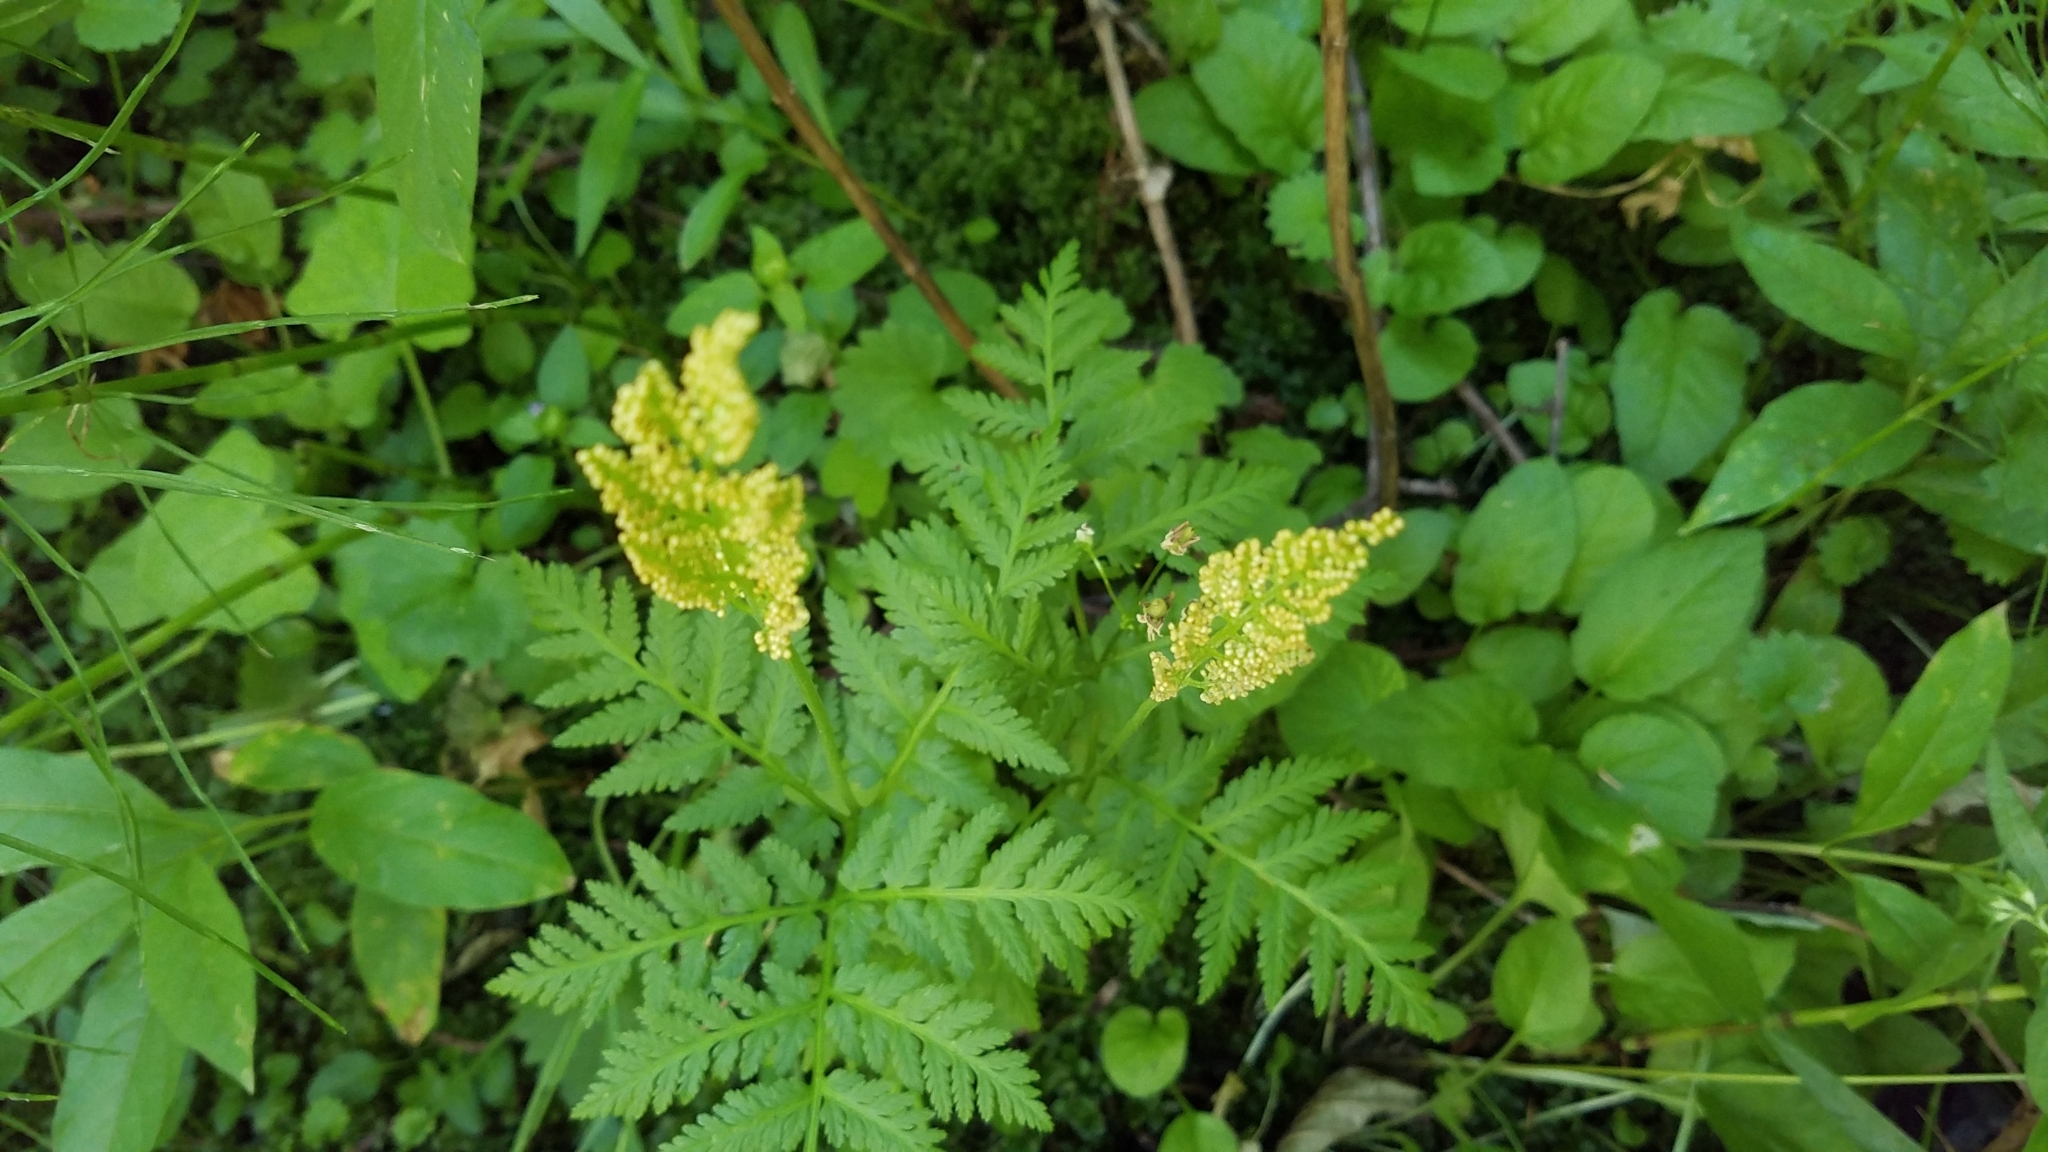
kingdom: Plantae
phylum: Tracheophyta
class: Polypodiopsida
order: Ophioglossales
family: Ophioglossaceae
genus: Botrypus
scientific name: Botrypus virginianus
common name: Common grapefern
